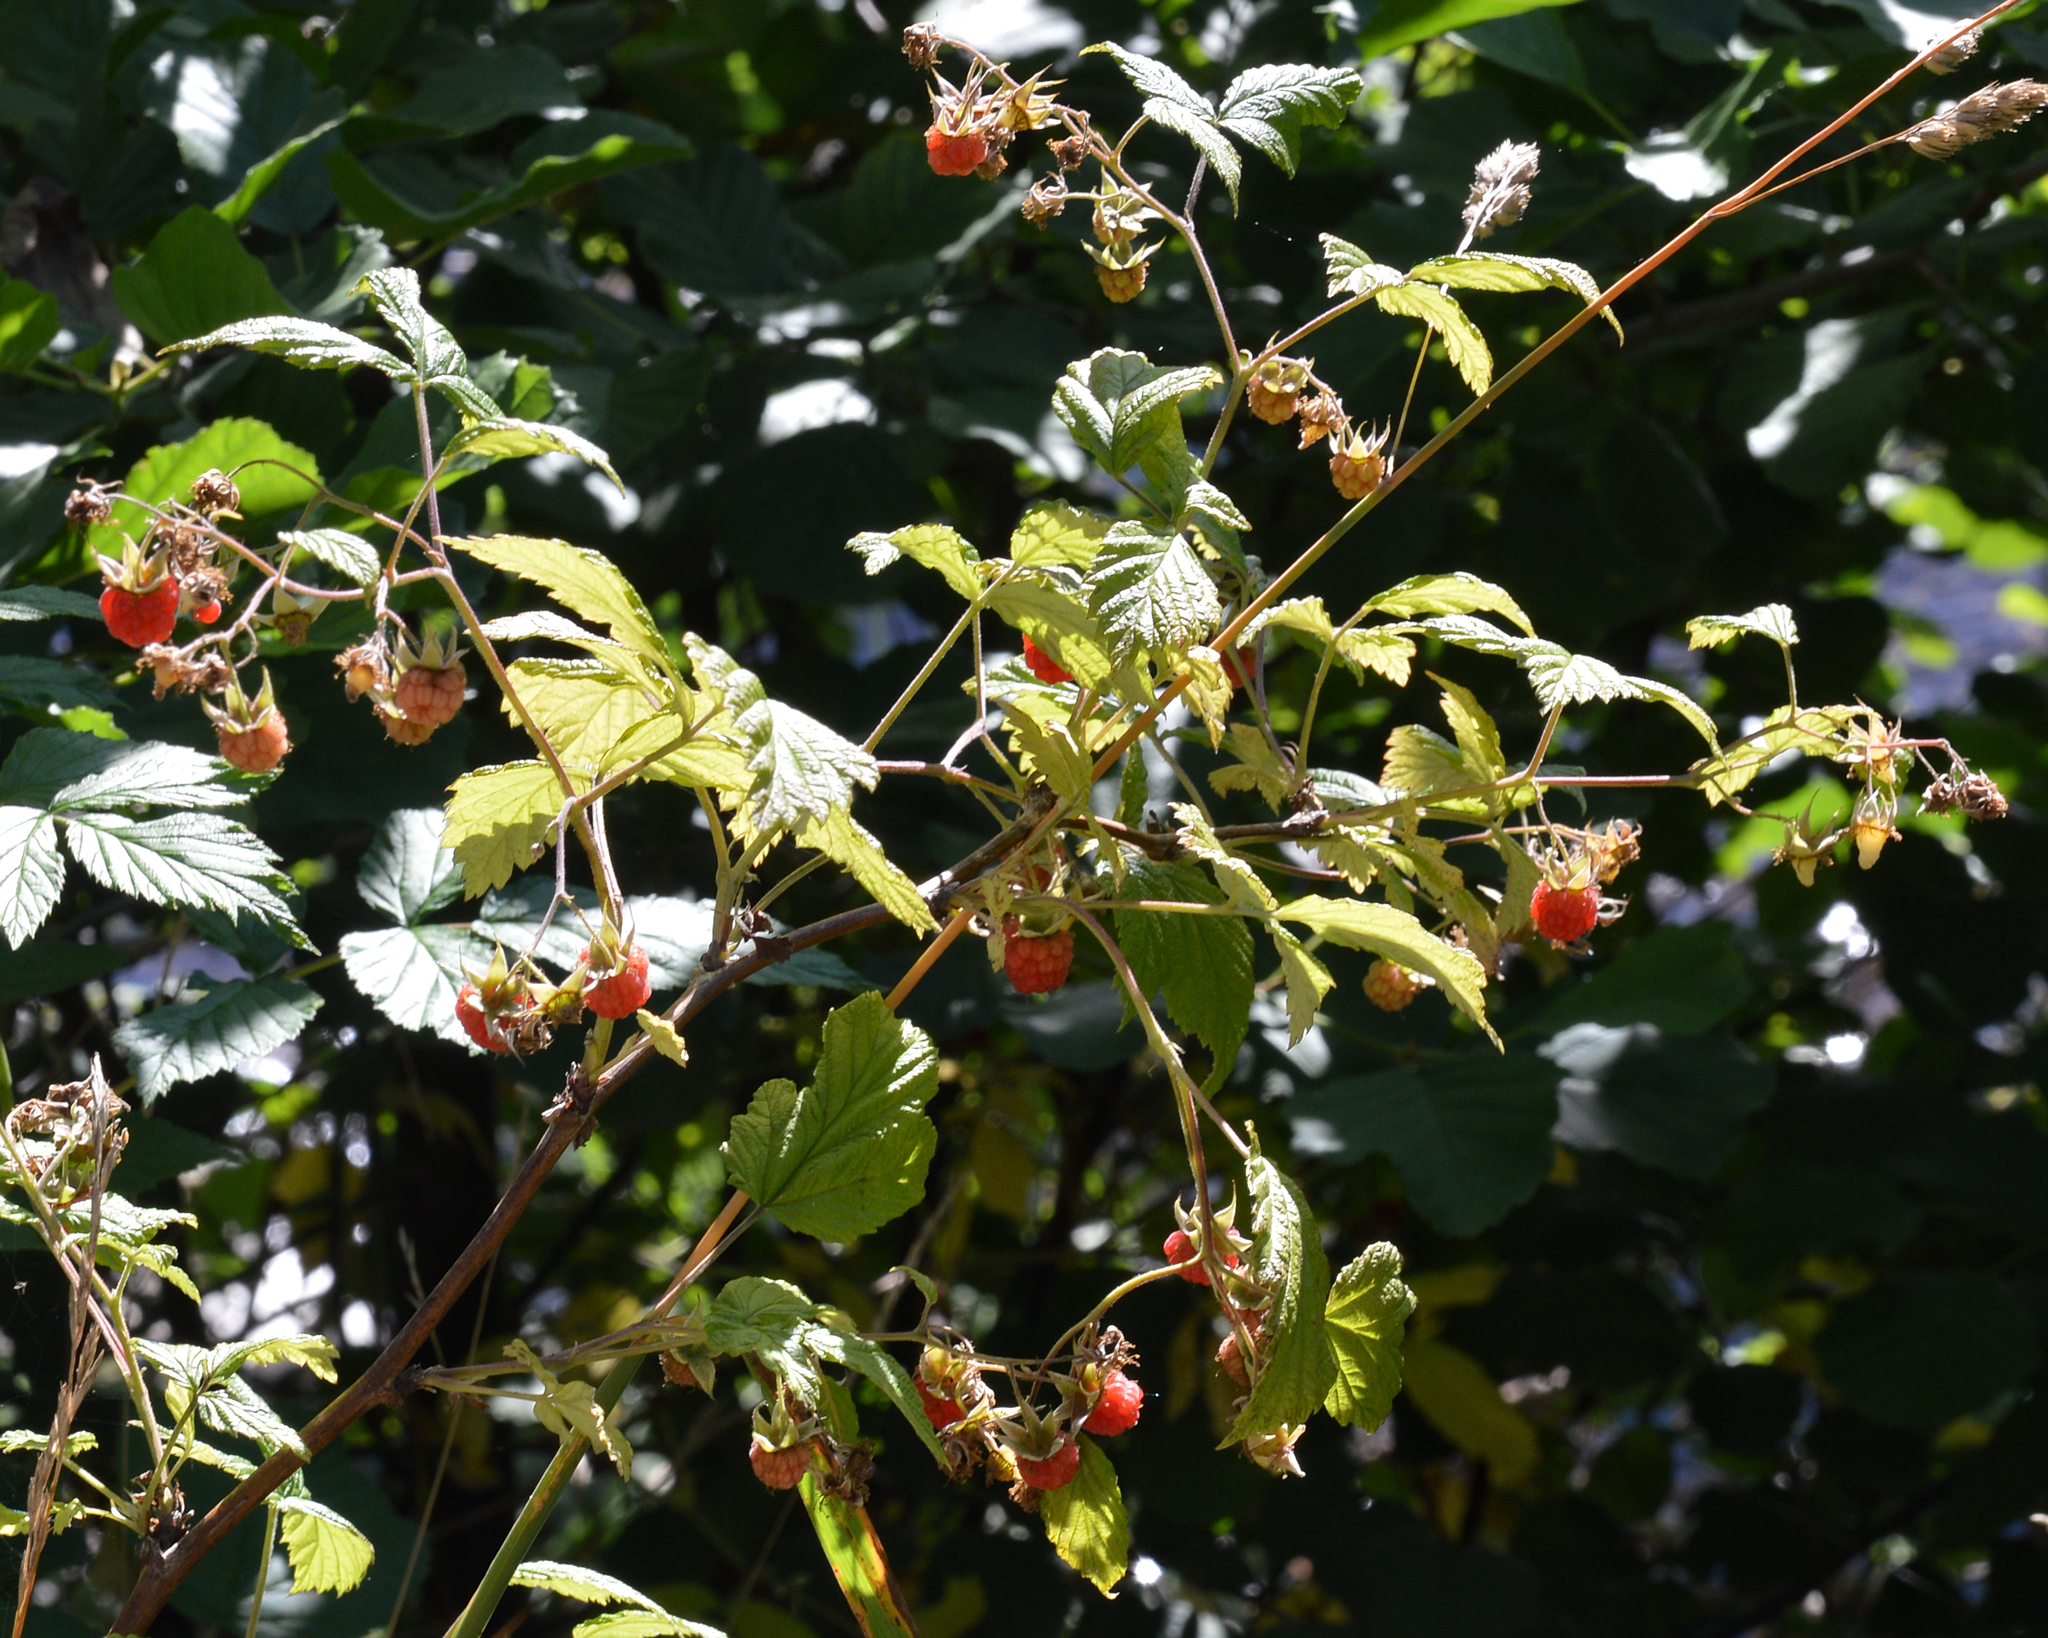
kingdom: Plantae
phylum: Tracheophyta
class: Magnoliopsida
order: Rosales
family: Rosaceae
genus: Rubus
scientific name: Rubus idaeus
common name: Raspberry
